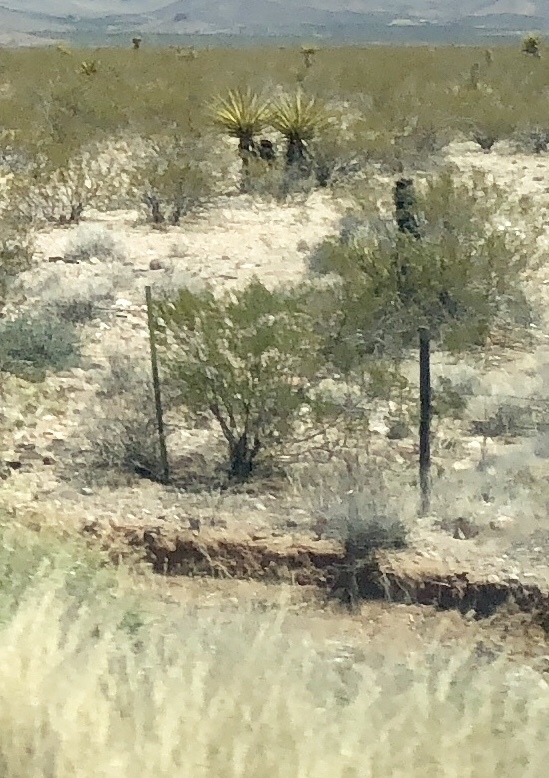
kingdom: Plantae
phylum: Tracheophyta
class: Magnoliopsida
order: Zygophyllales
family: Zygophyllaceae
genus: Larrea
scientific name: Larrea tridentata
